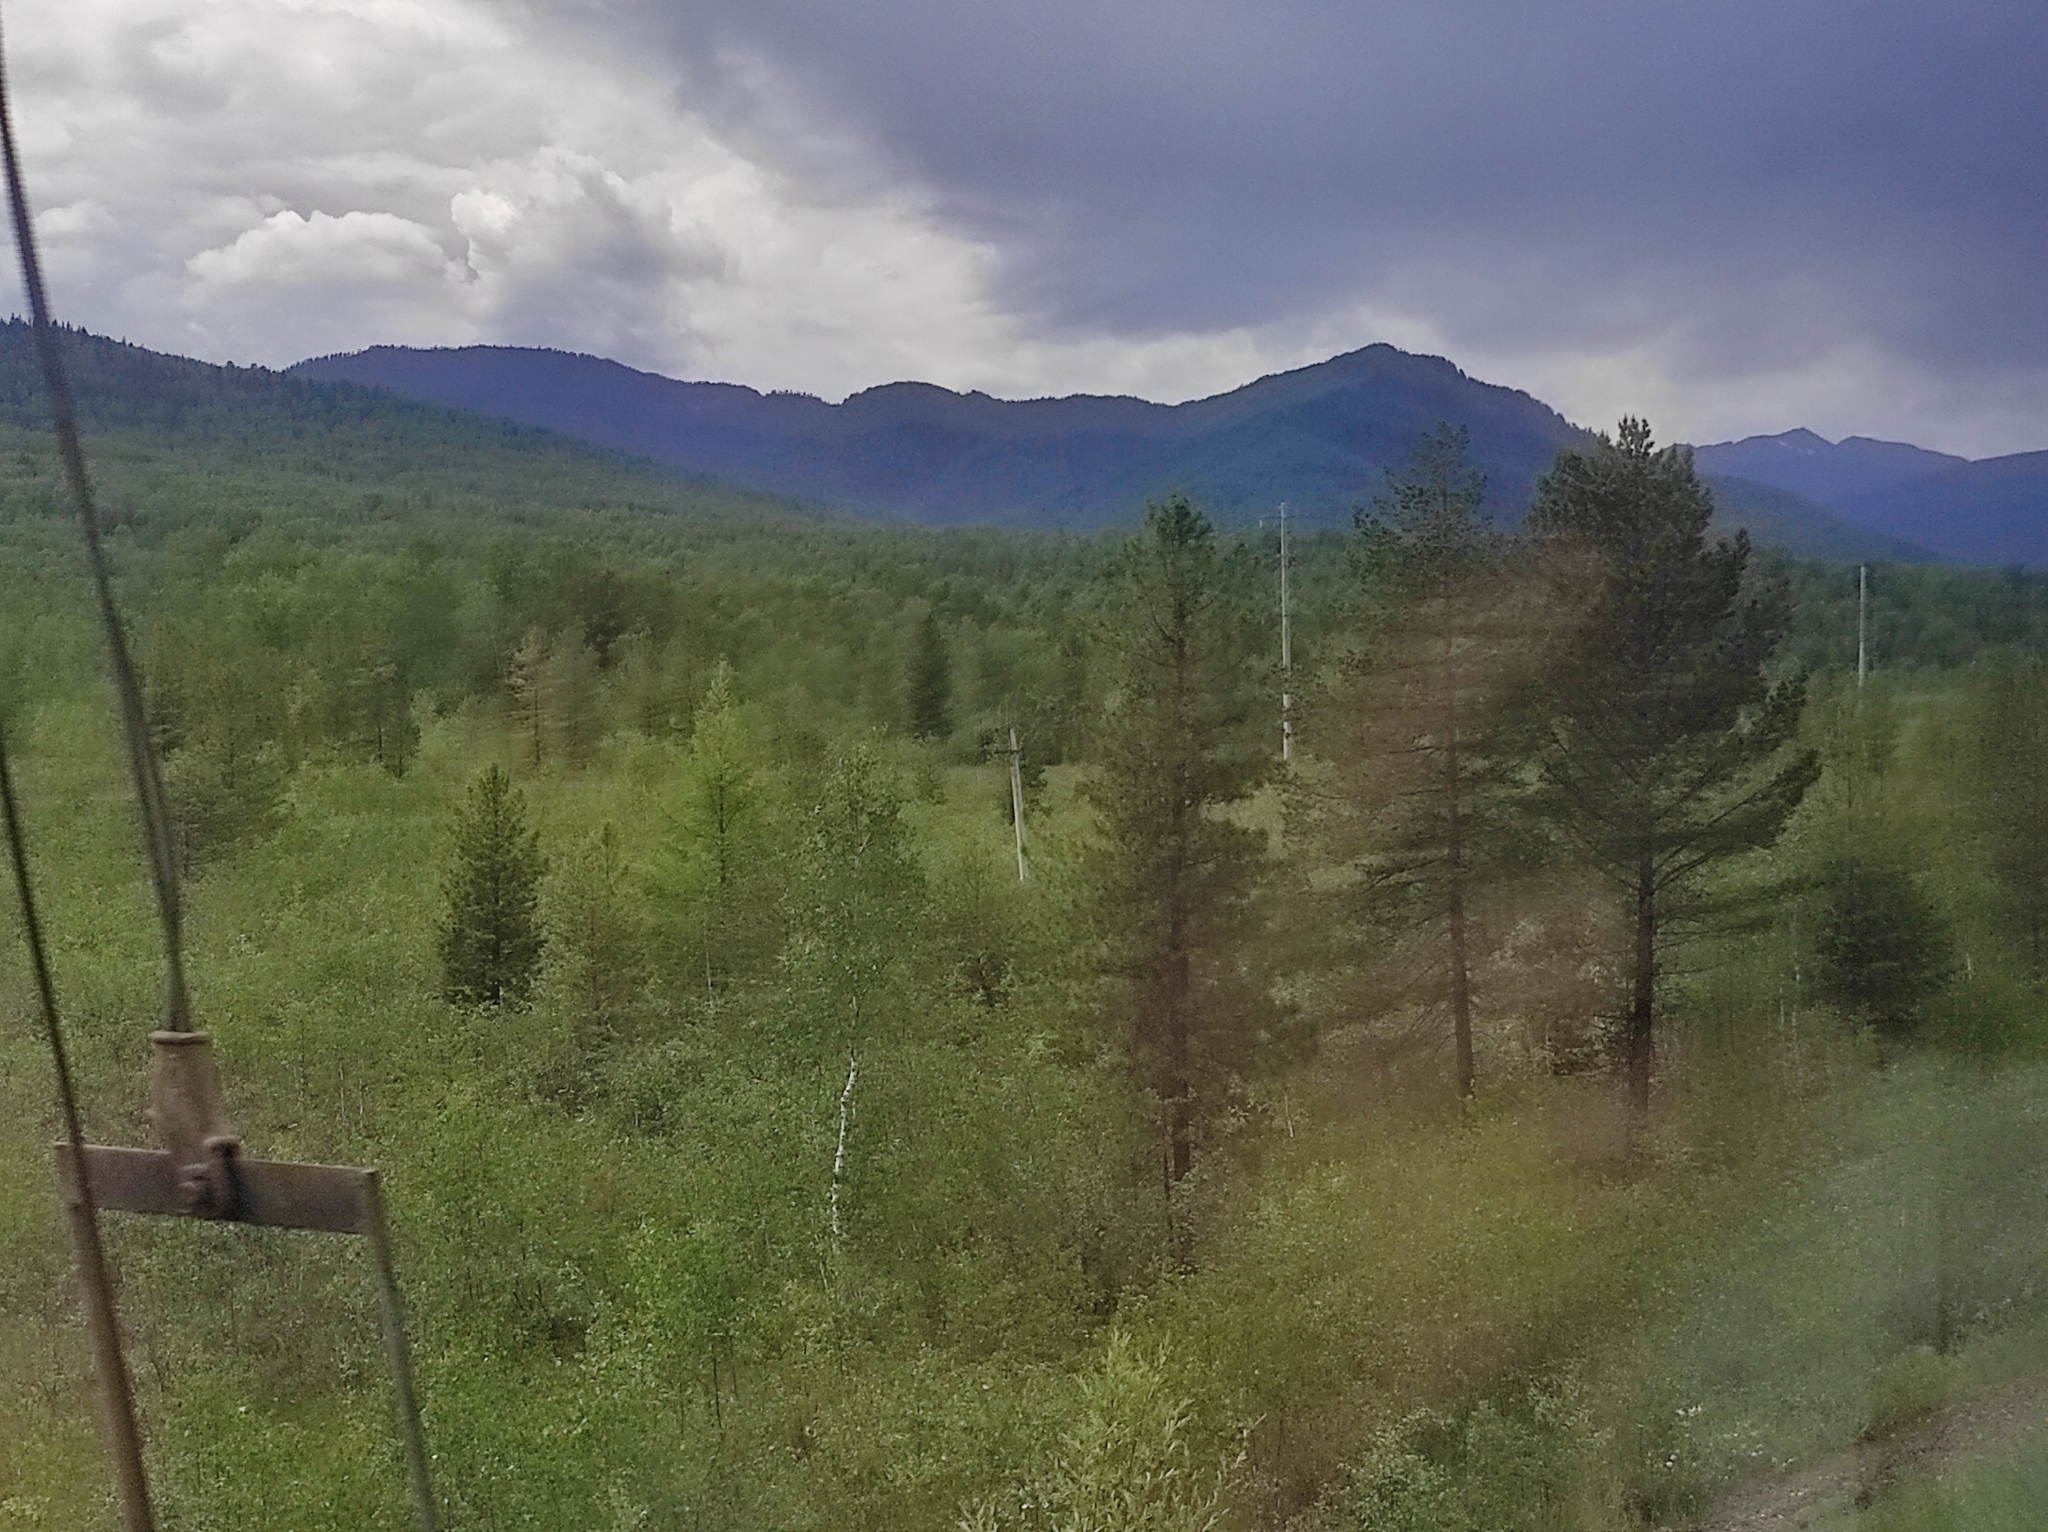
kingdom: Plantae
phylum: Tracheophyta
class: Pinopsida
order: Pinales
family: Pinaceae
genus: Pinus
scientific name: Pinus sylvestris
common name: Scots pine
